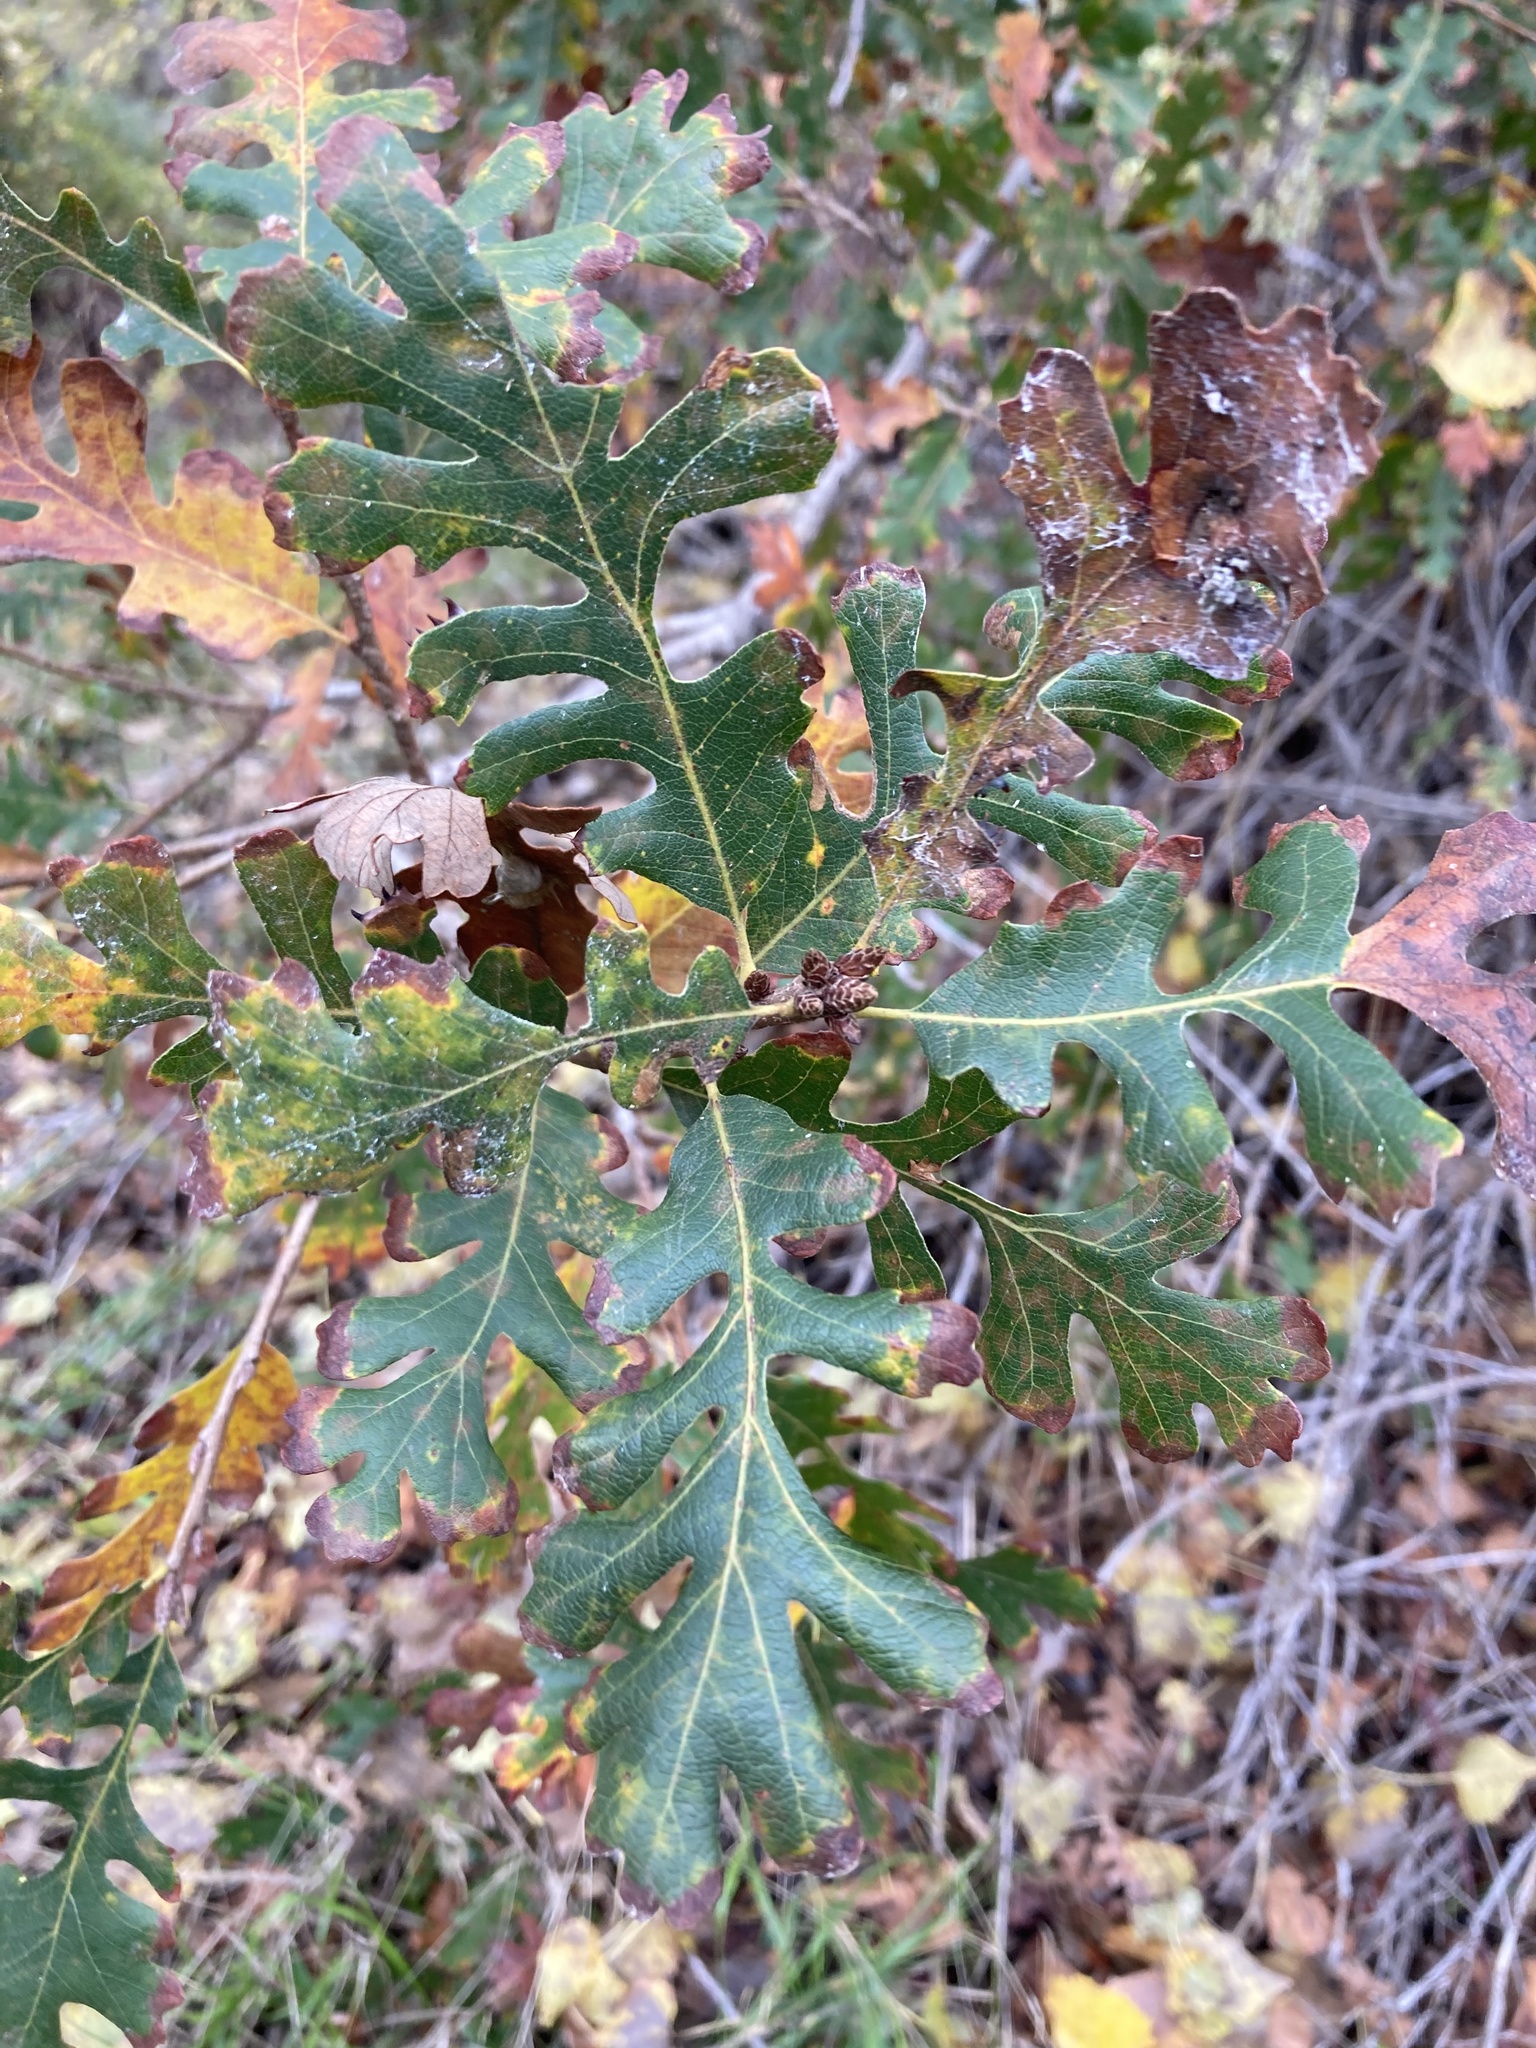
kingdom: Plantae
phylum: Tracheophyta
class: Magnoliopsida
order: Fagales
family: Fagaceae
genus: Quercus
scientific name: Quercus lobata
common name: Valley oak
